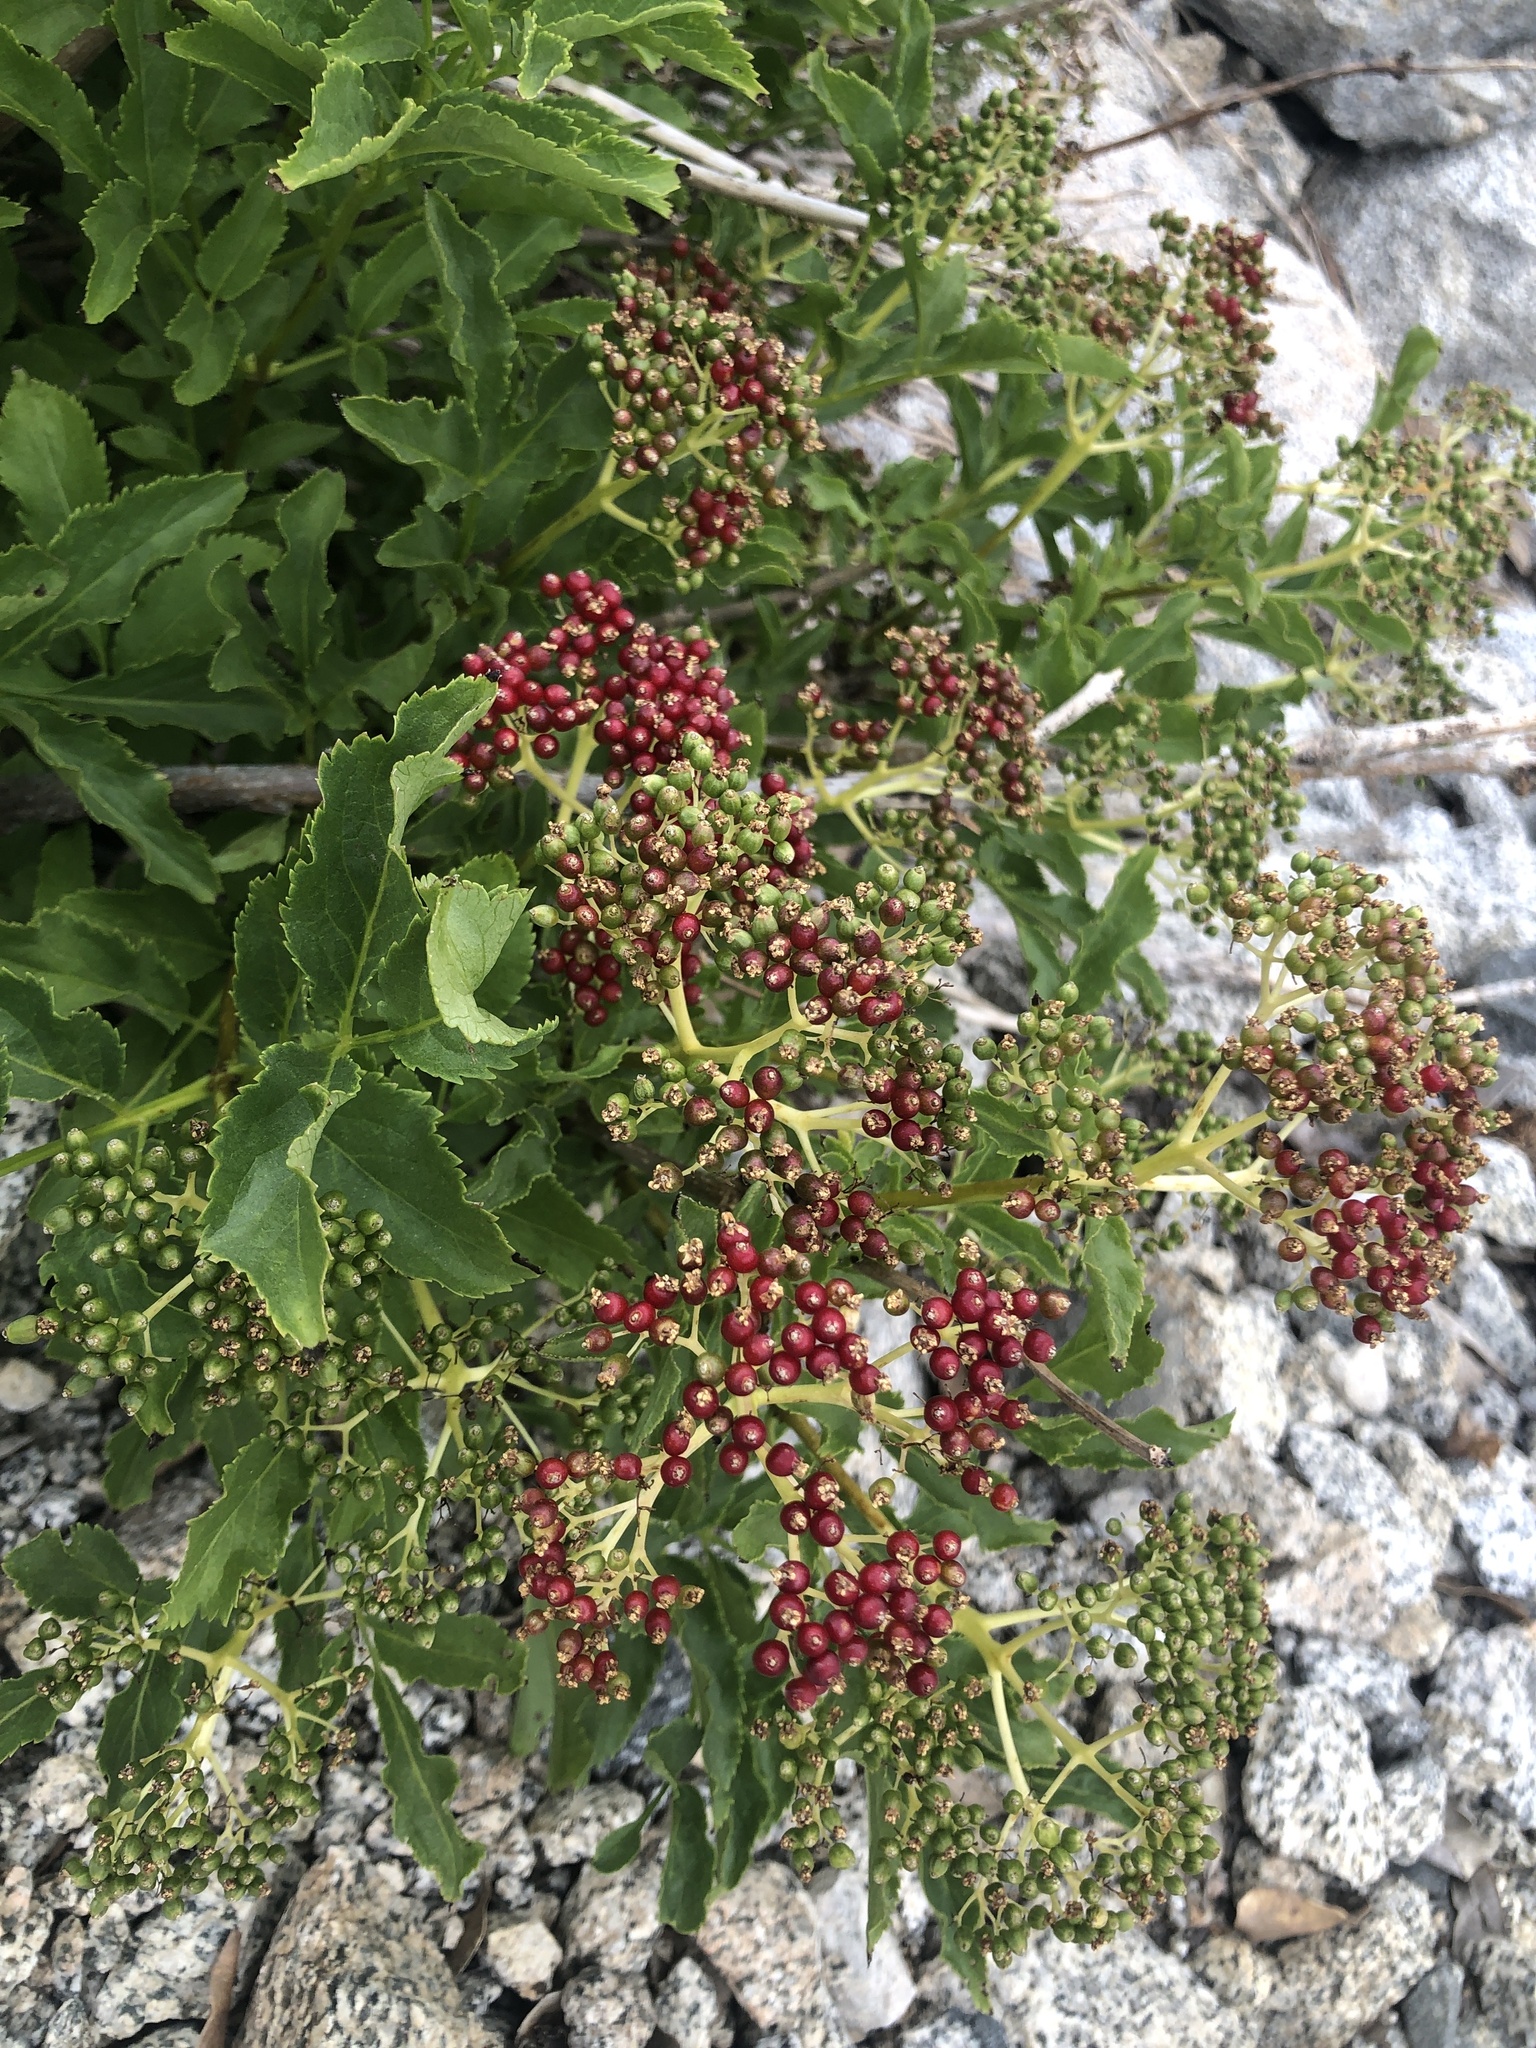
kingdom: Plantae
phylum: Tracheophyta
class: Magnoliopsida
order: Dipsacales
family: Viburnaceae
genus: Sambucus
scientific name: Sambucus racemosa
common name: Red-berried elder
